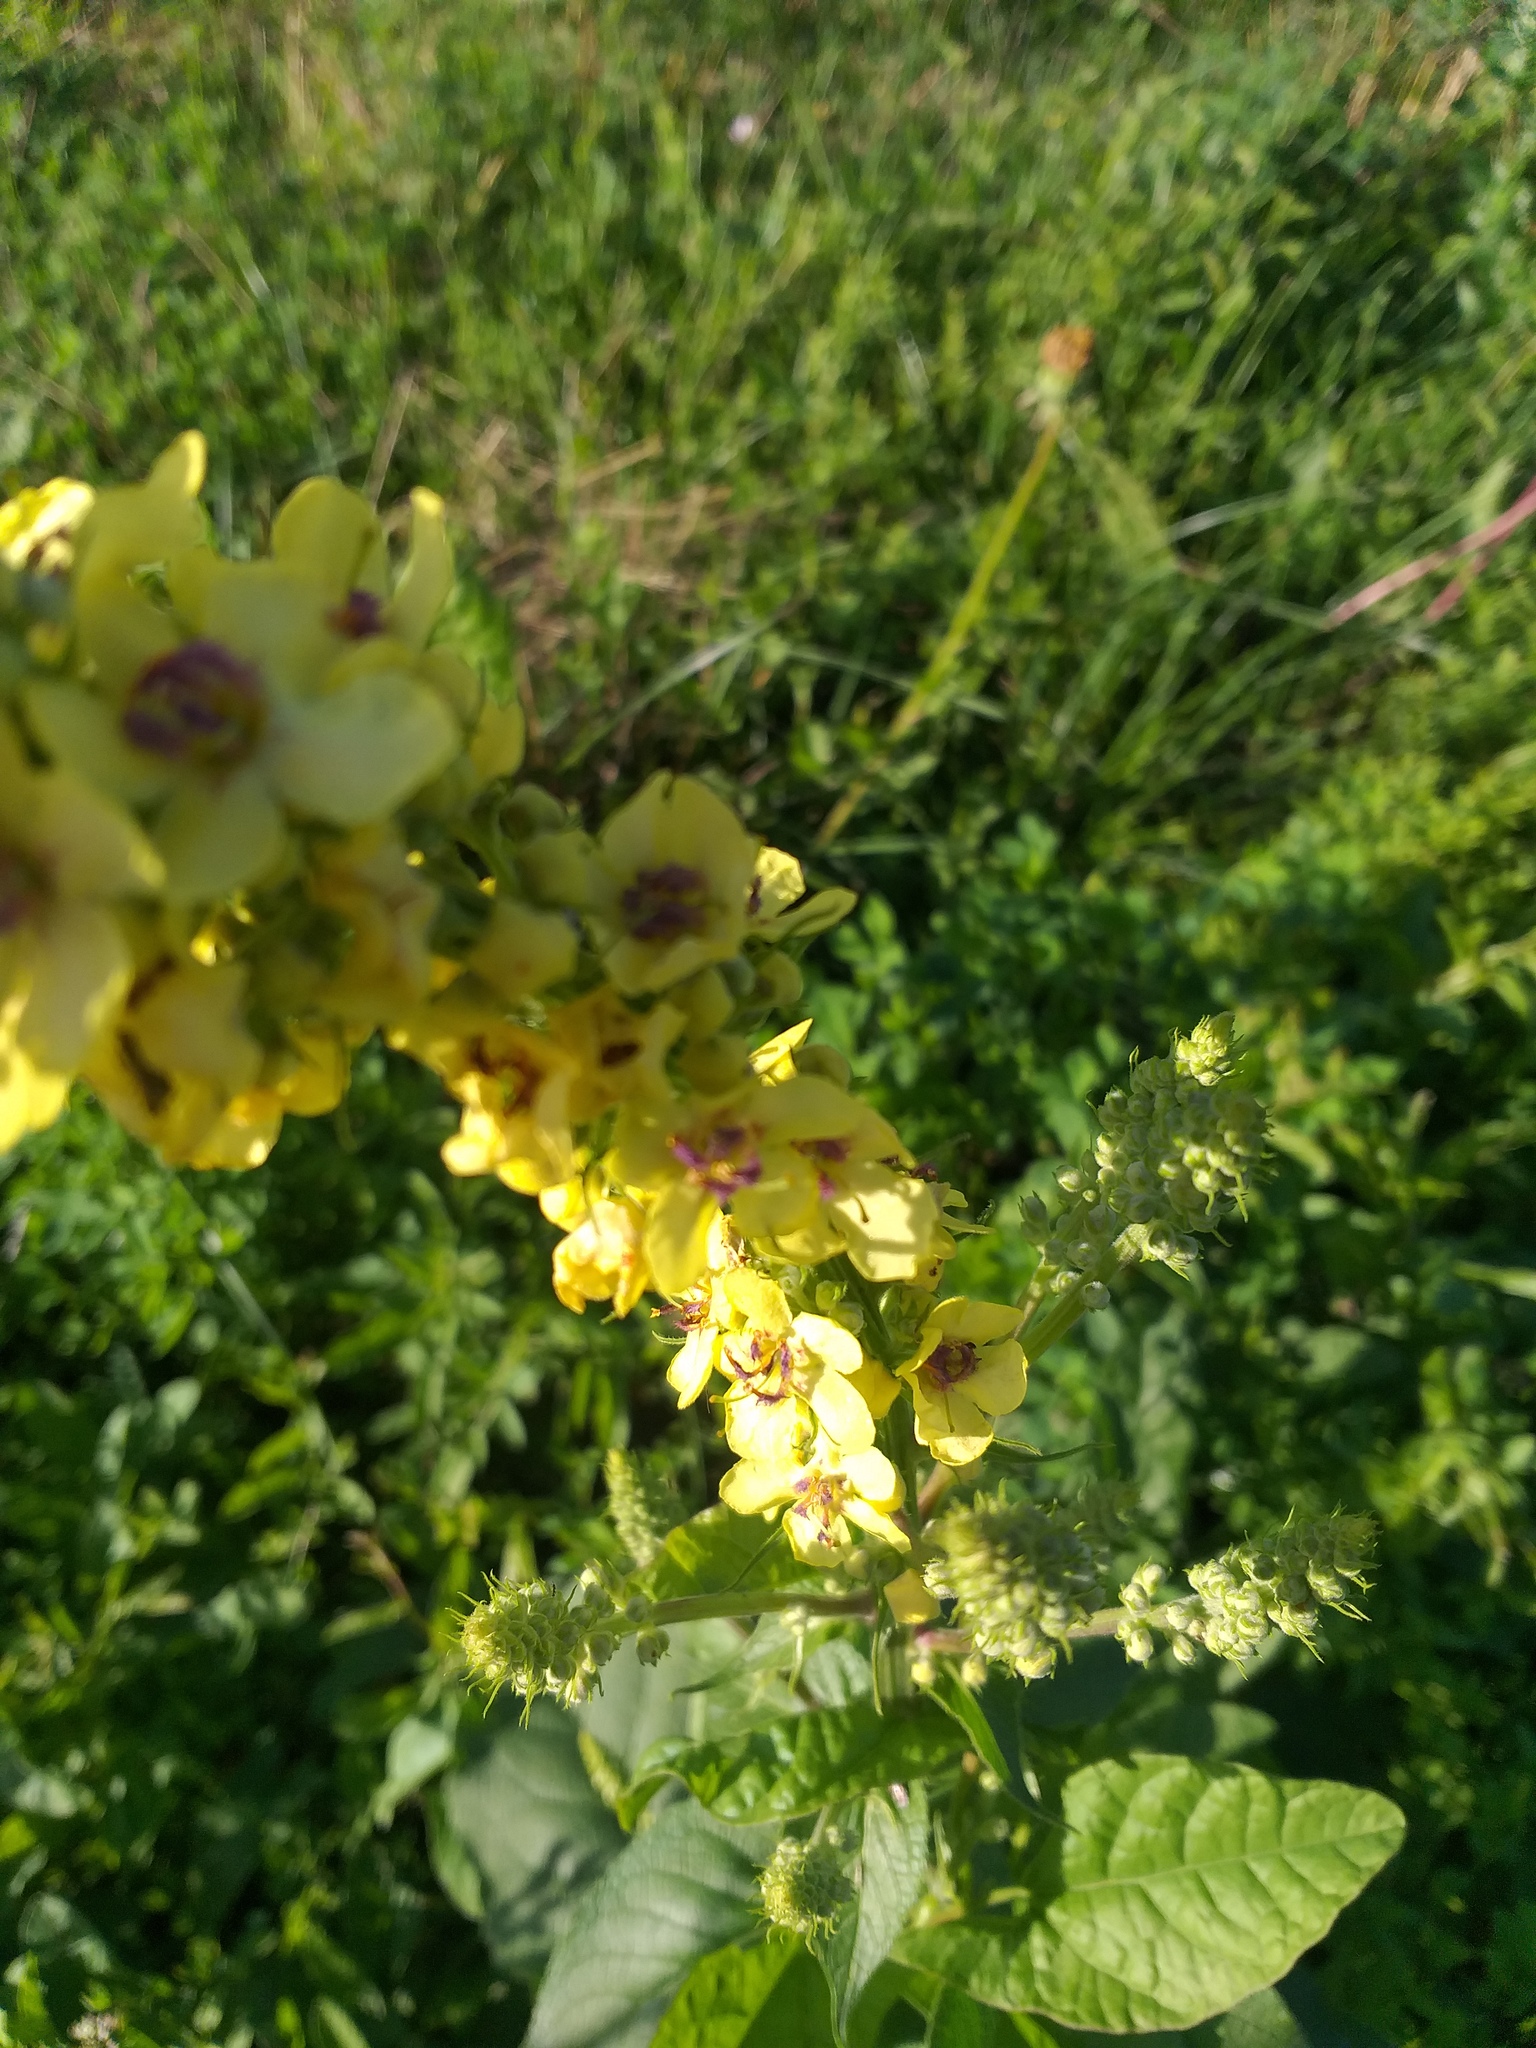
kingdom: Plantae
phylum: Tracheophyta
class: Magnoliopsida
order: Lamiales
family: Scrophulariaceae
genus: Verbascum
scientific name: Verbascum nigrum
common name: Dark mullein
